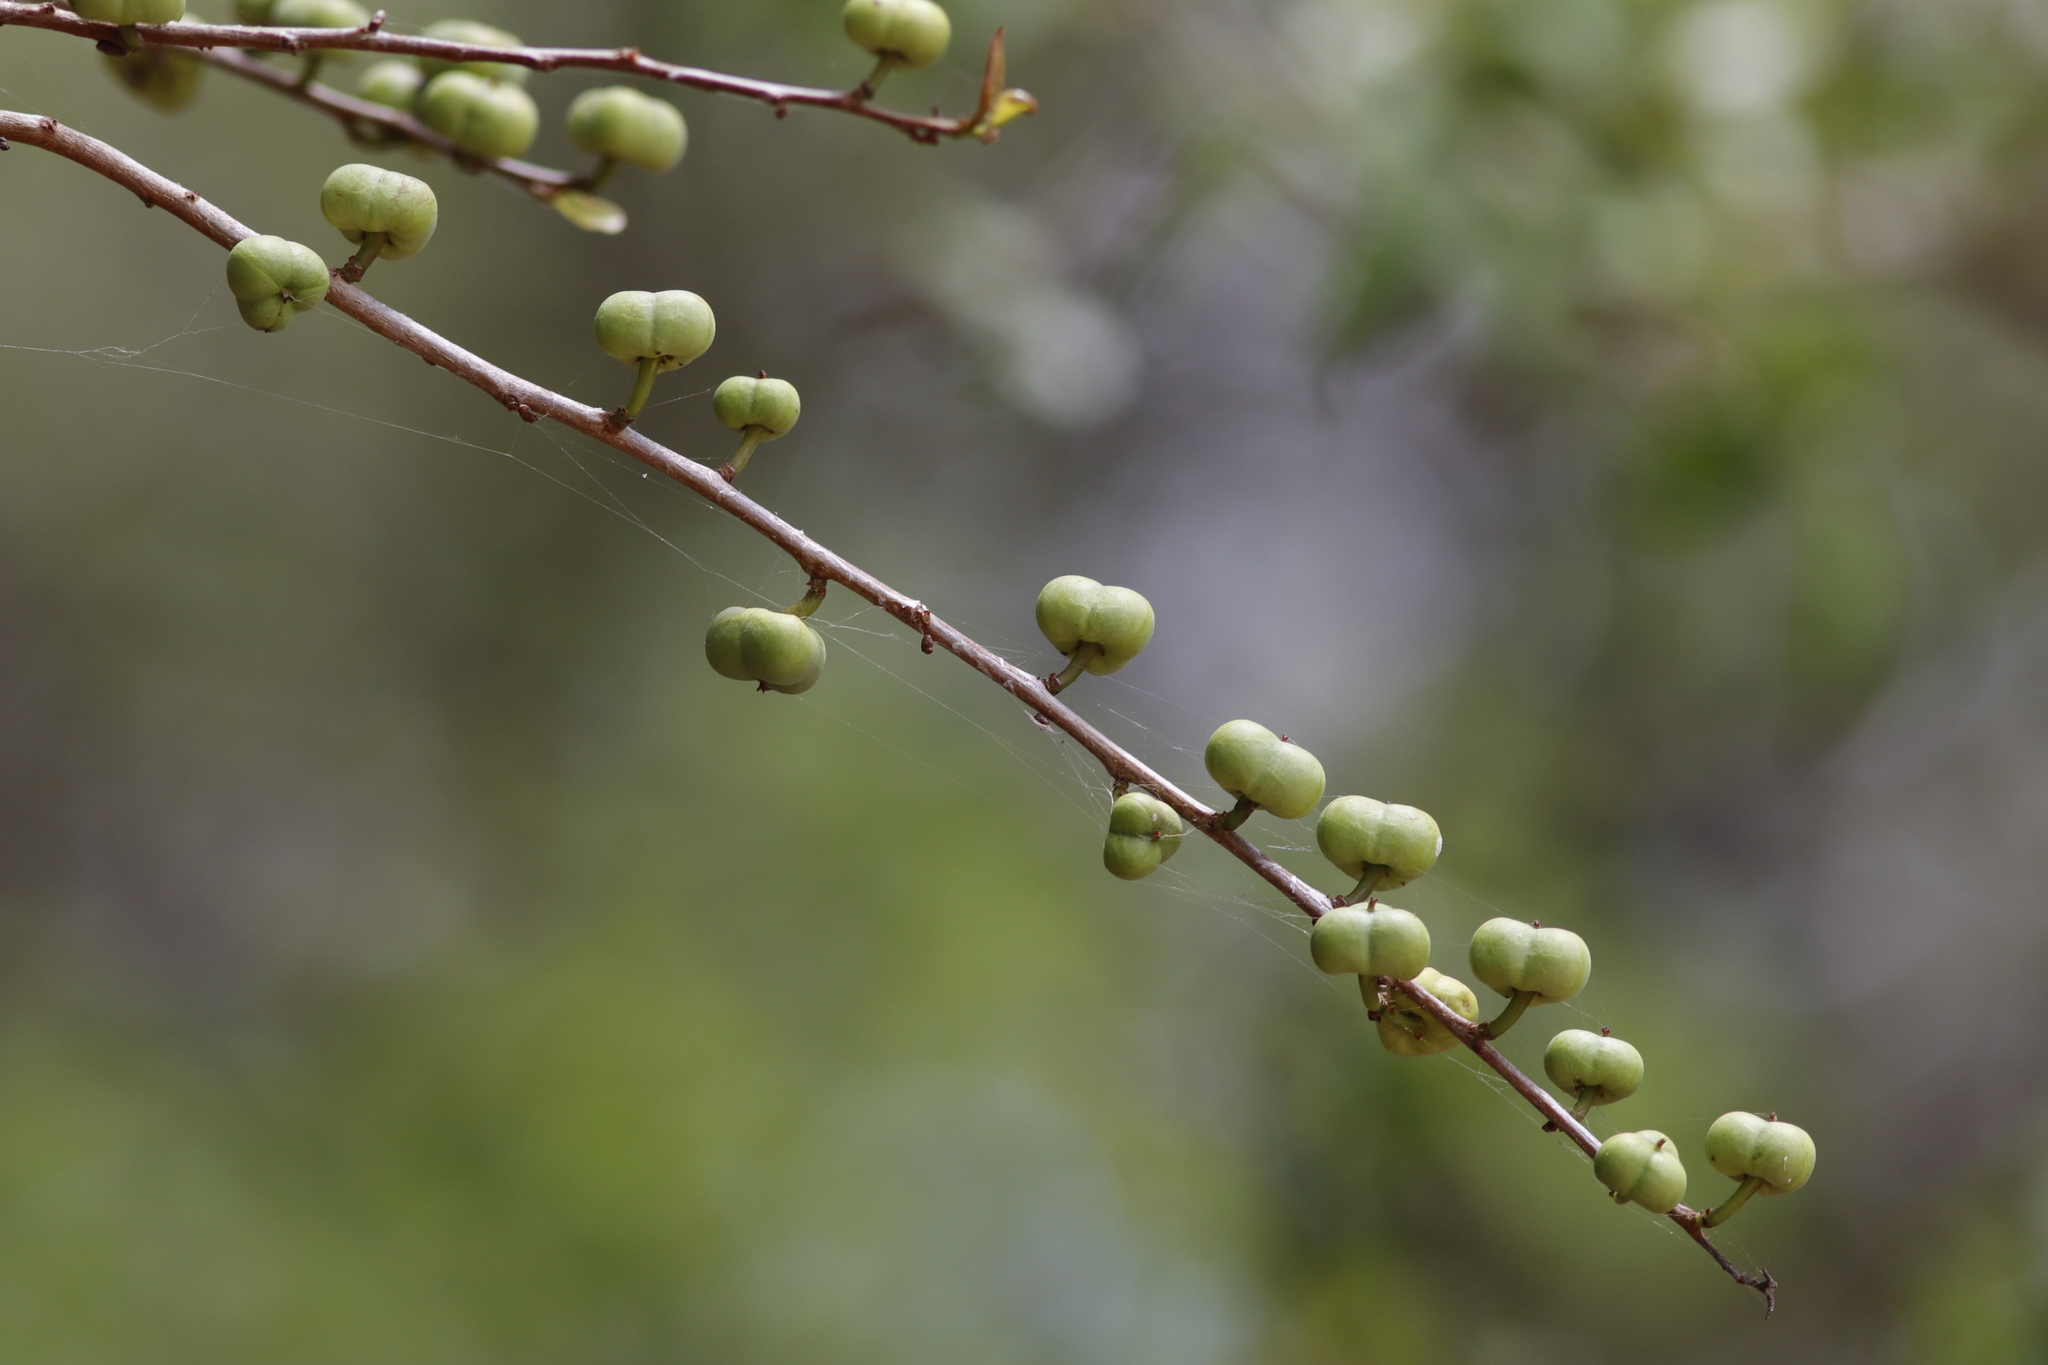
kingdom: Plantae
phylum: Tracheophyta
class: Magnoliopsida
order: Malpighiales
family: Euphorbiaceae
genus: Spirostachys
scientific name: Spirostachys africana
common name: Tamboti
